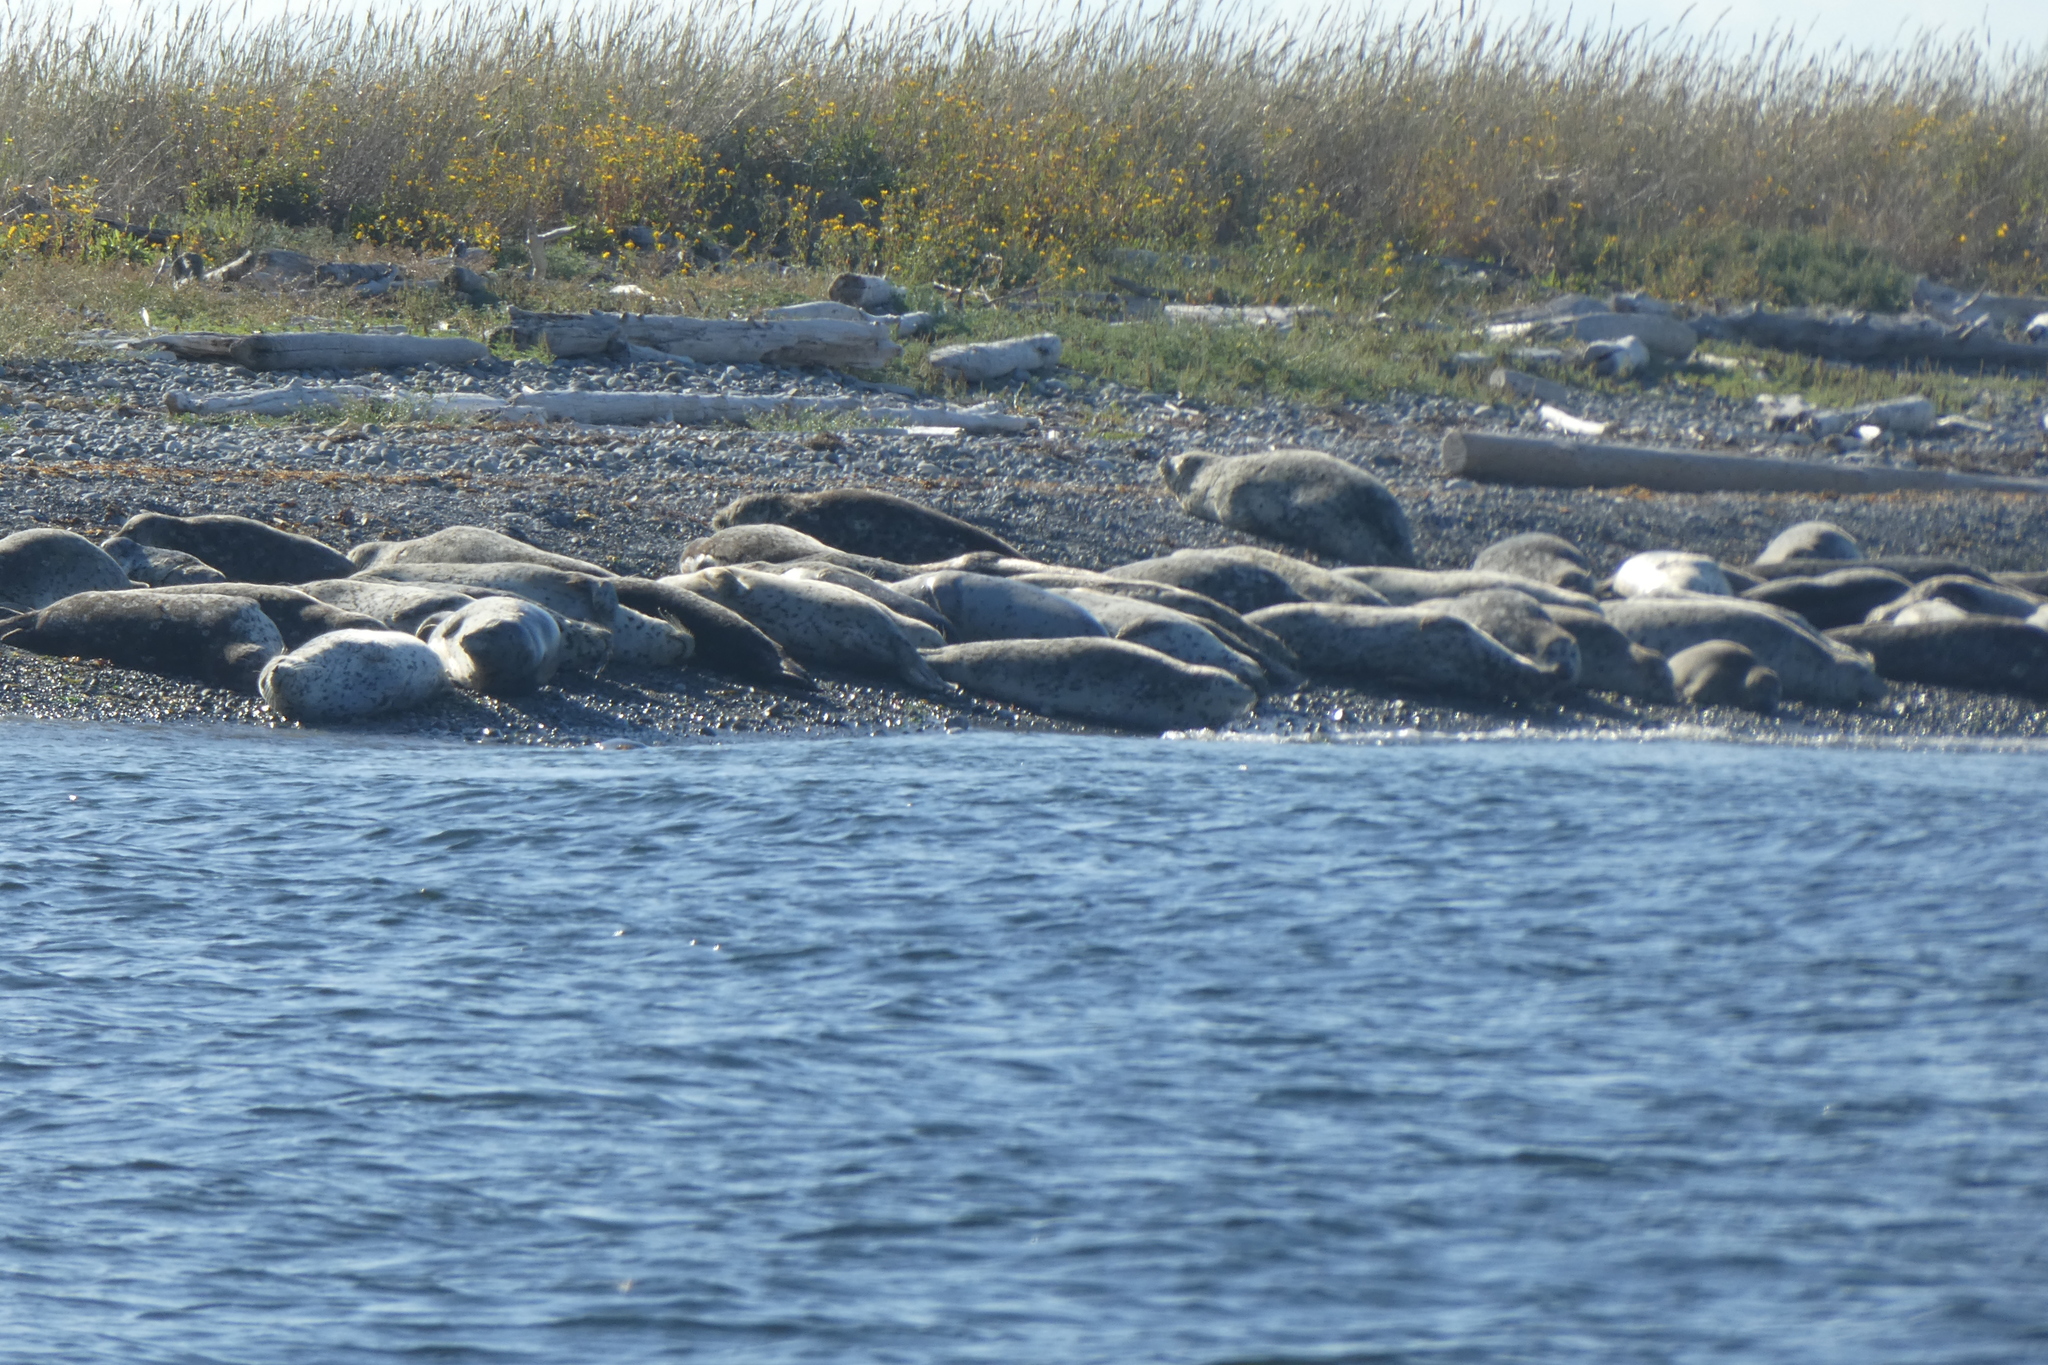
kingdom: Animalia
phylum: Chordata
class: Mammalia
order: Carnivora
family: Phocidae
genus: Phoca
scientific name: Phoca vitulina
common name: Harbor seal
